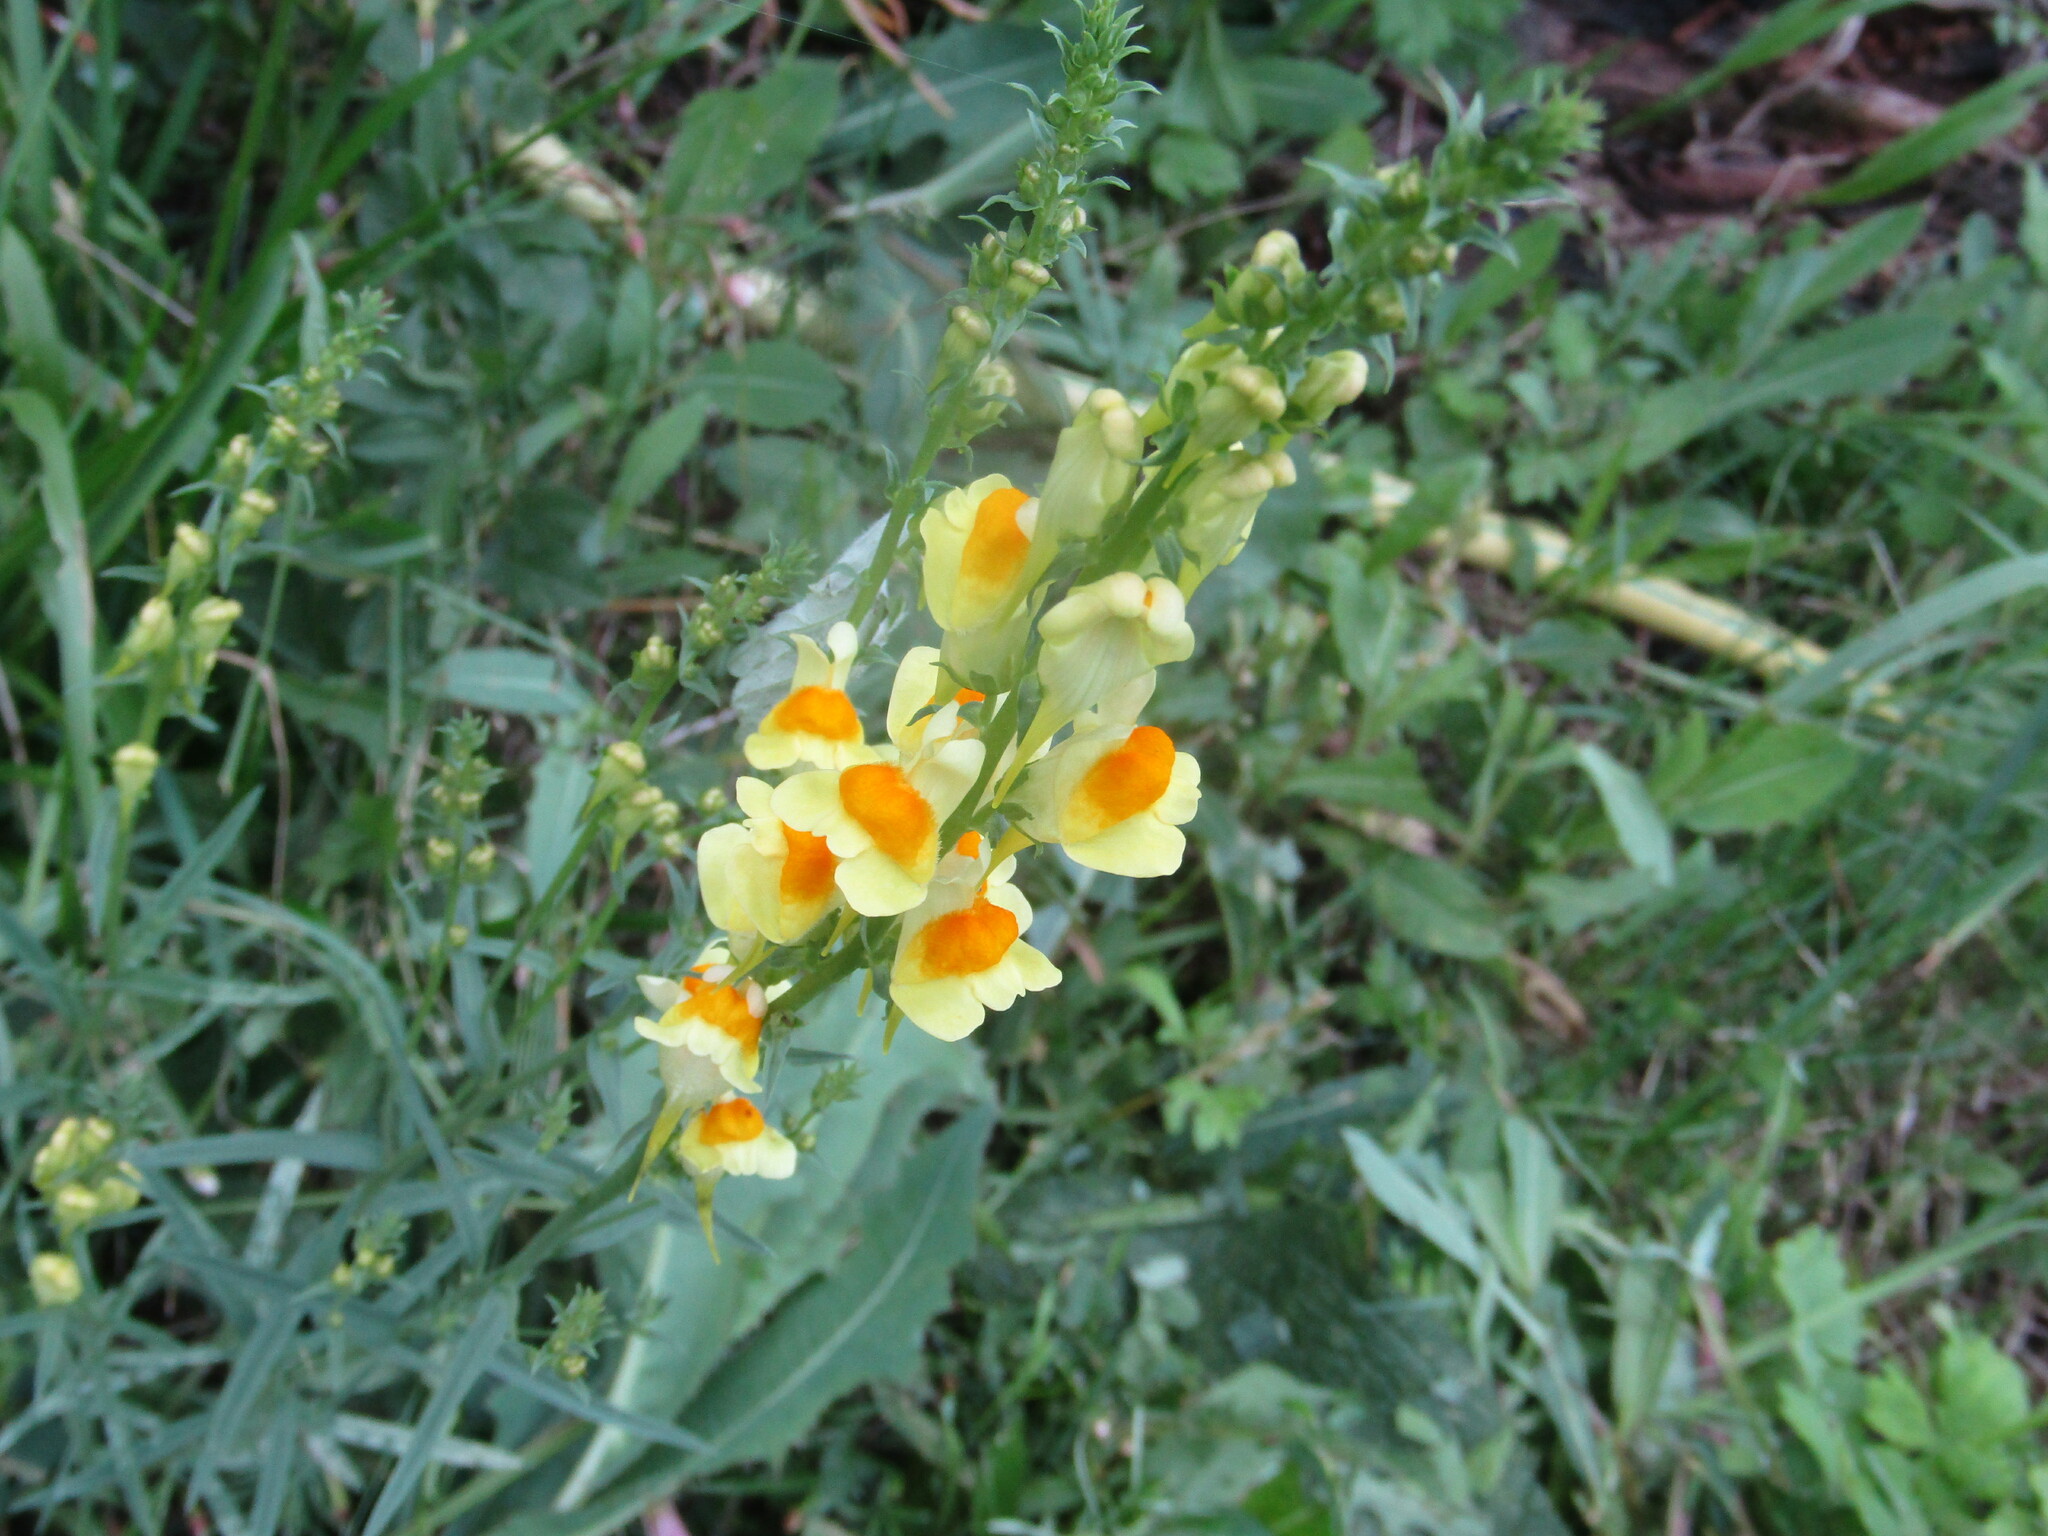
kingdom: Plantae
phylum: Tracheophyta
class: Magnoliopsida
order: Lamiales
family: Plantaginaceae
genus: Linaria
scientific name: Linaria vulgaris
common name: Butter and eggs
